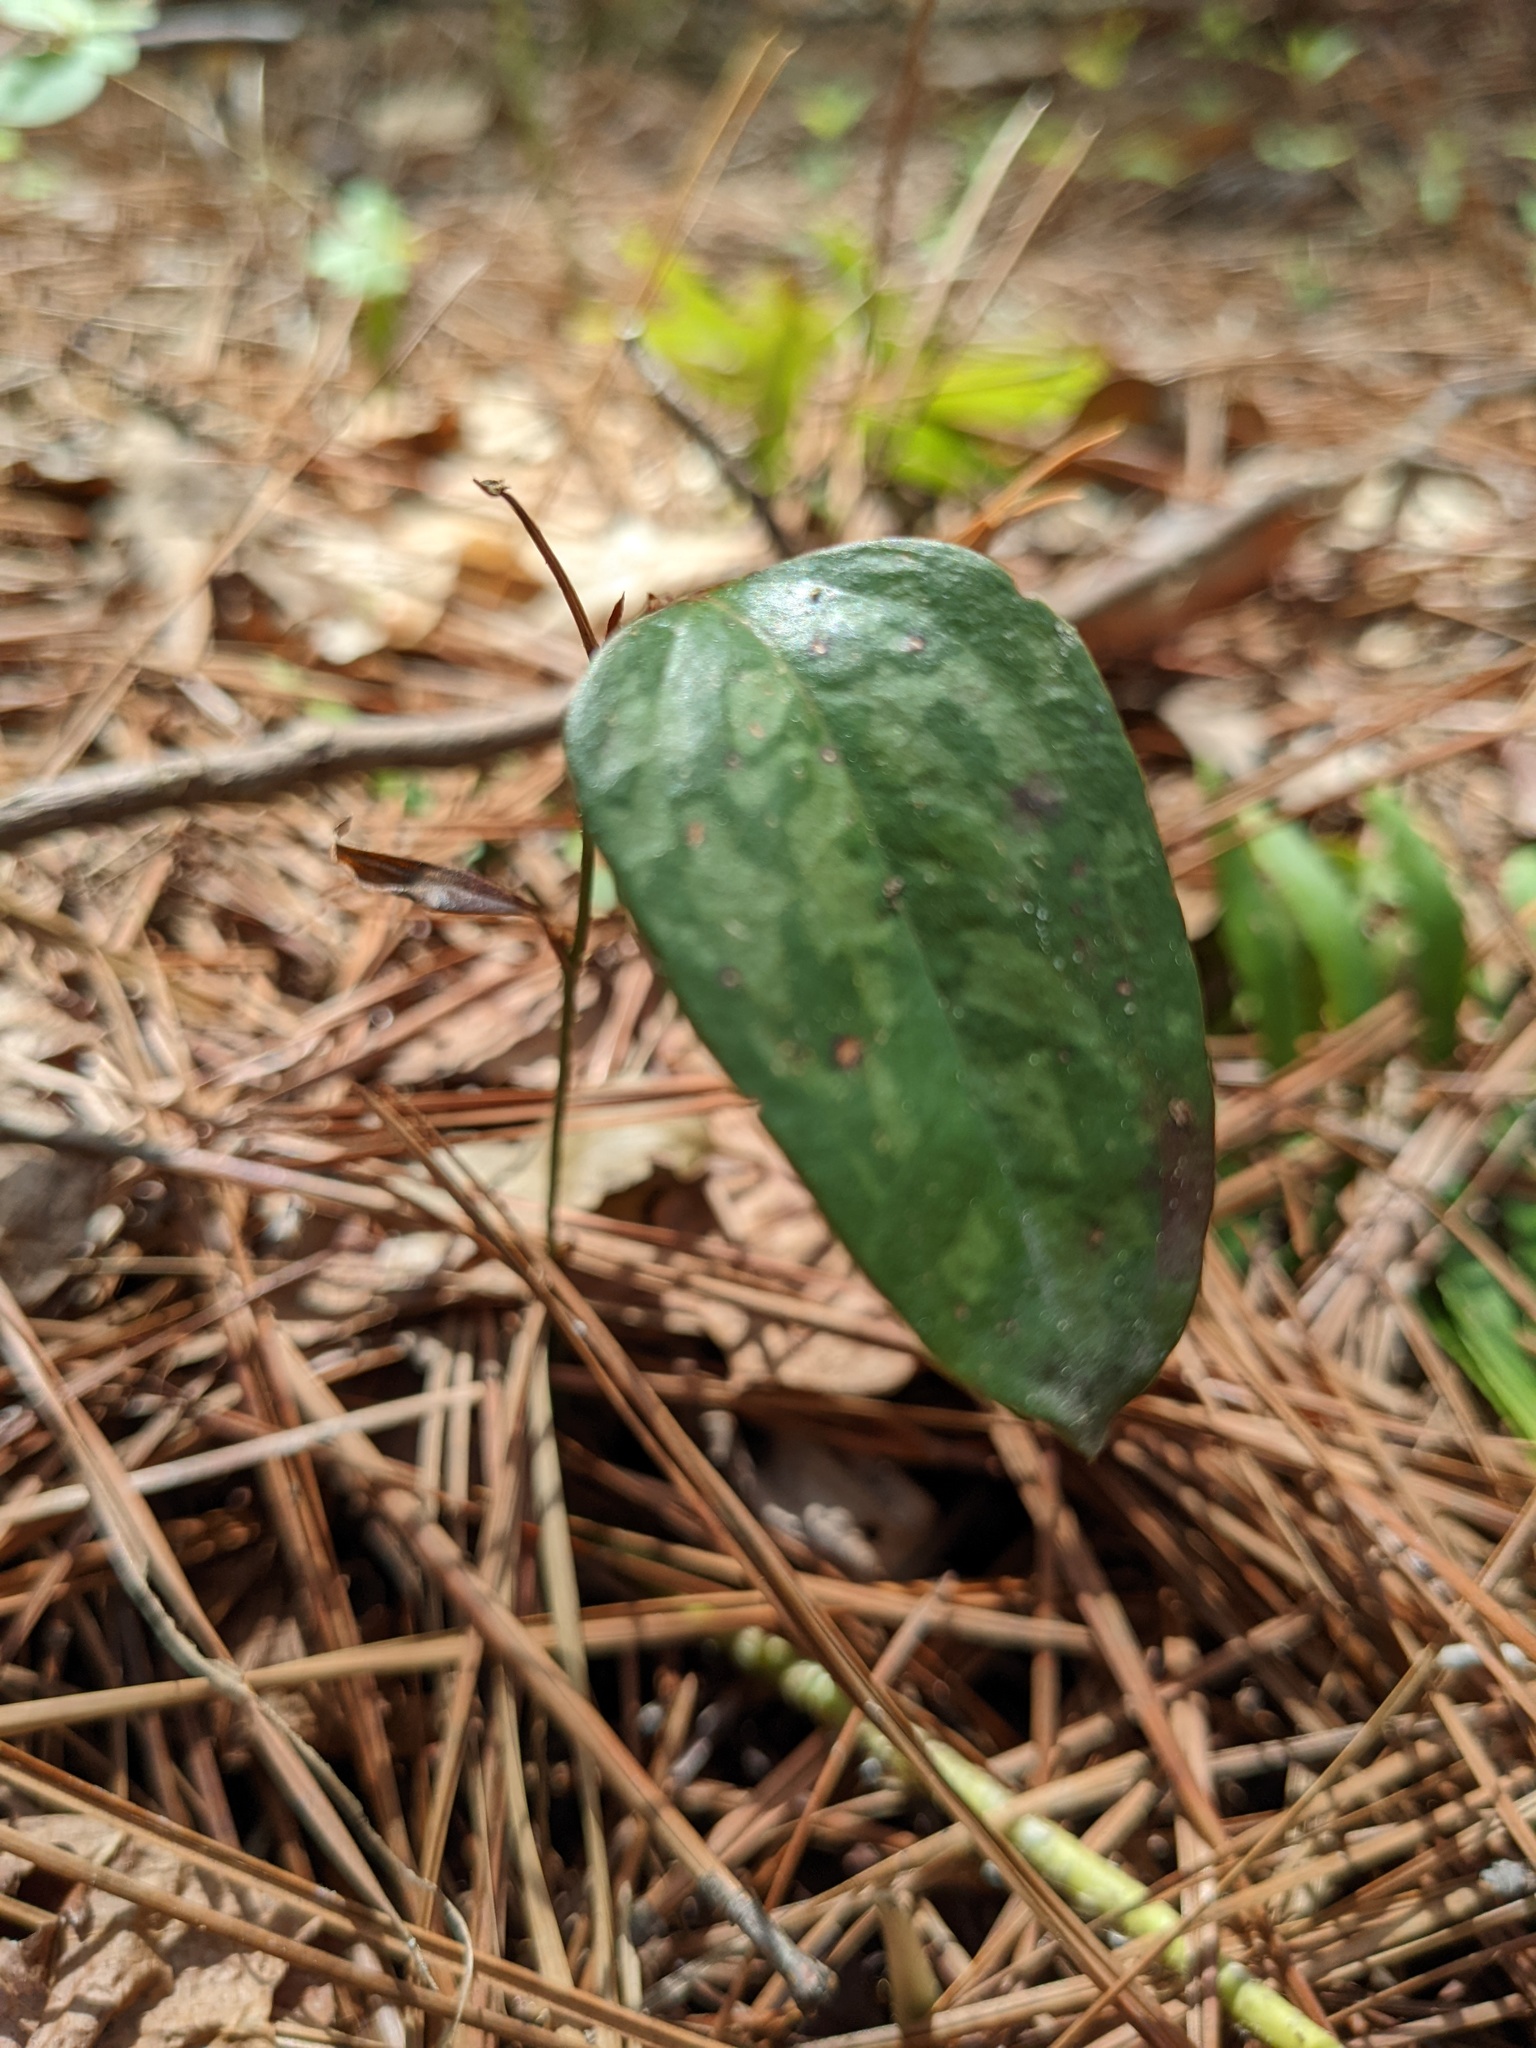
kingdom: Plantae
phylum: Tracheophyta
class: Liliopsida
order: Liliales
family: Smilacaceae
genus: Smilax
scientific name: Smilax glauca
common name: Cat greenbrier
